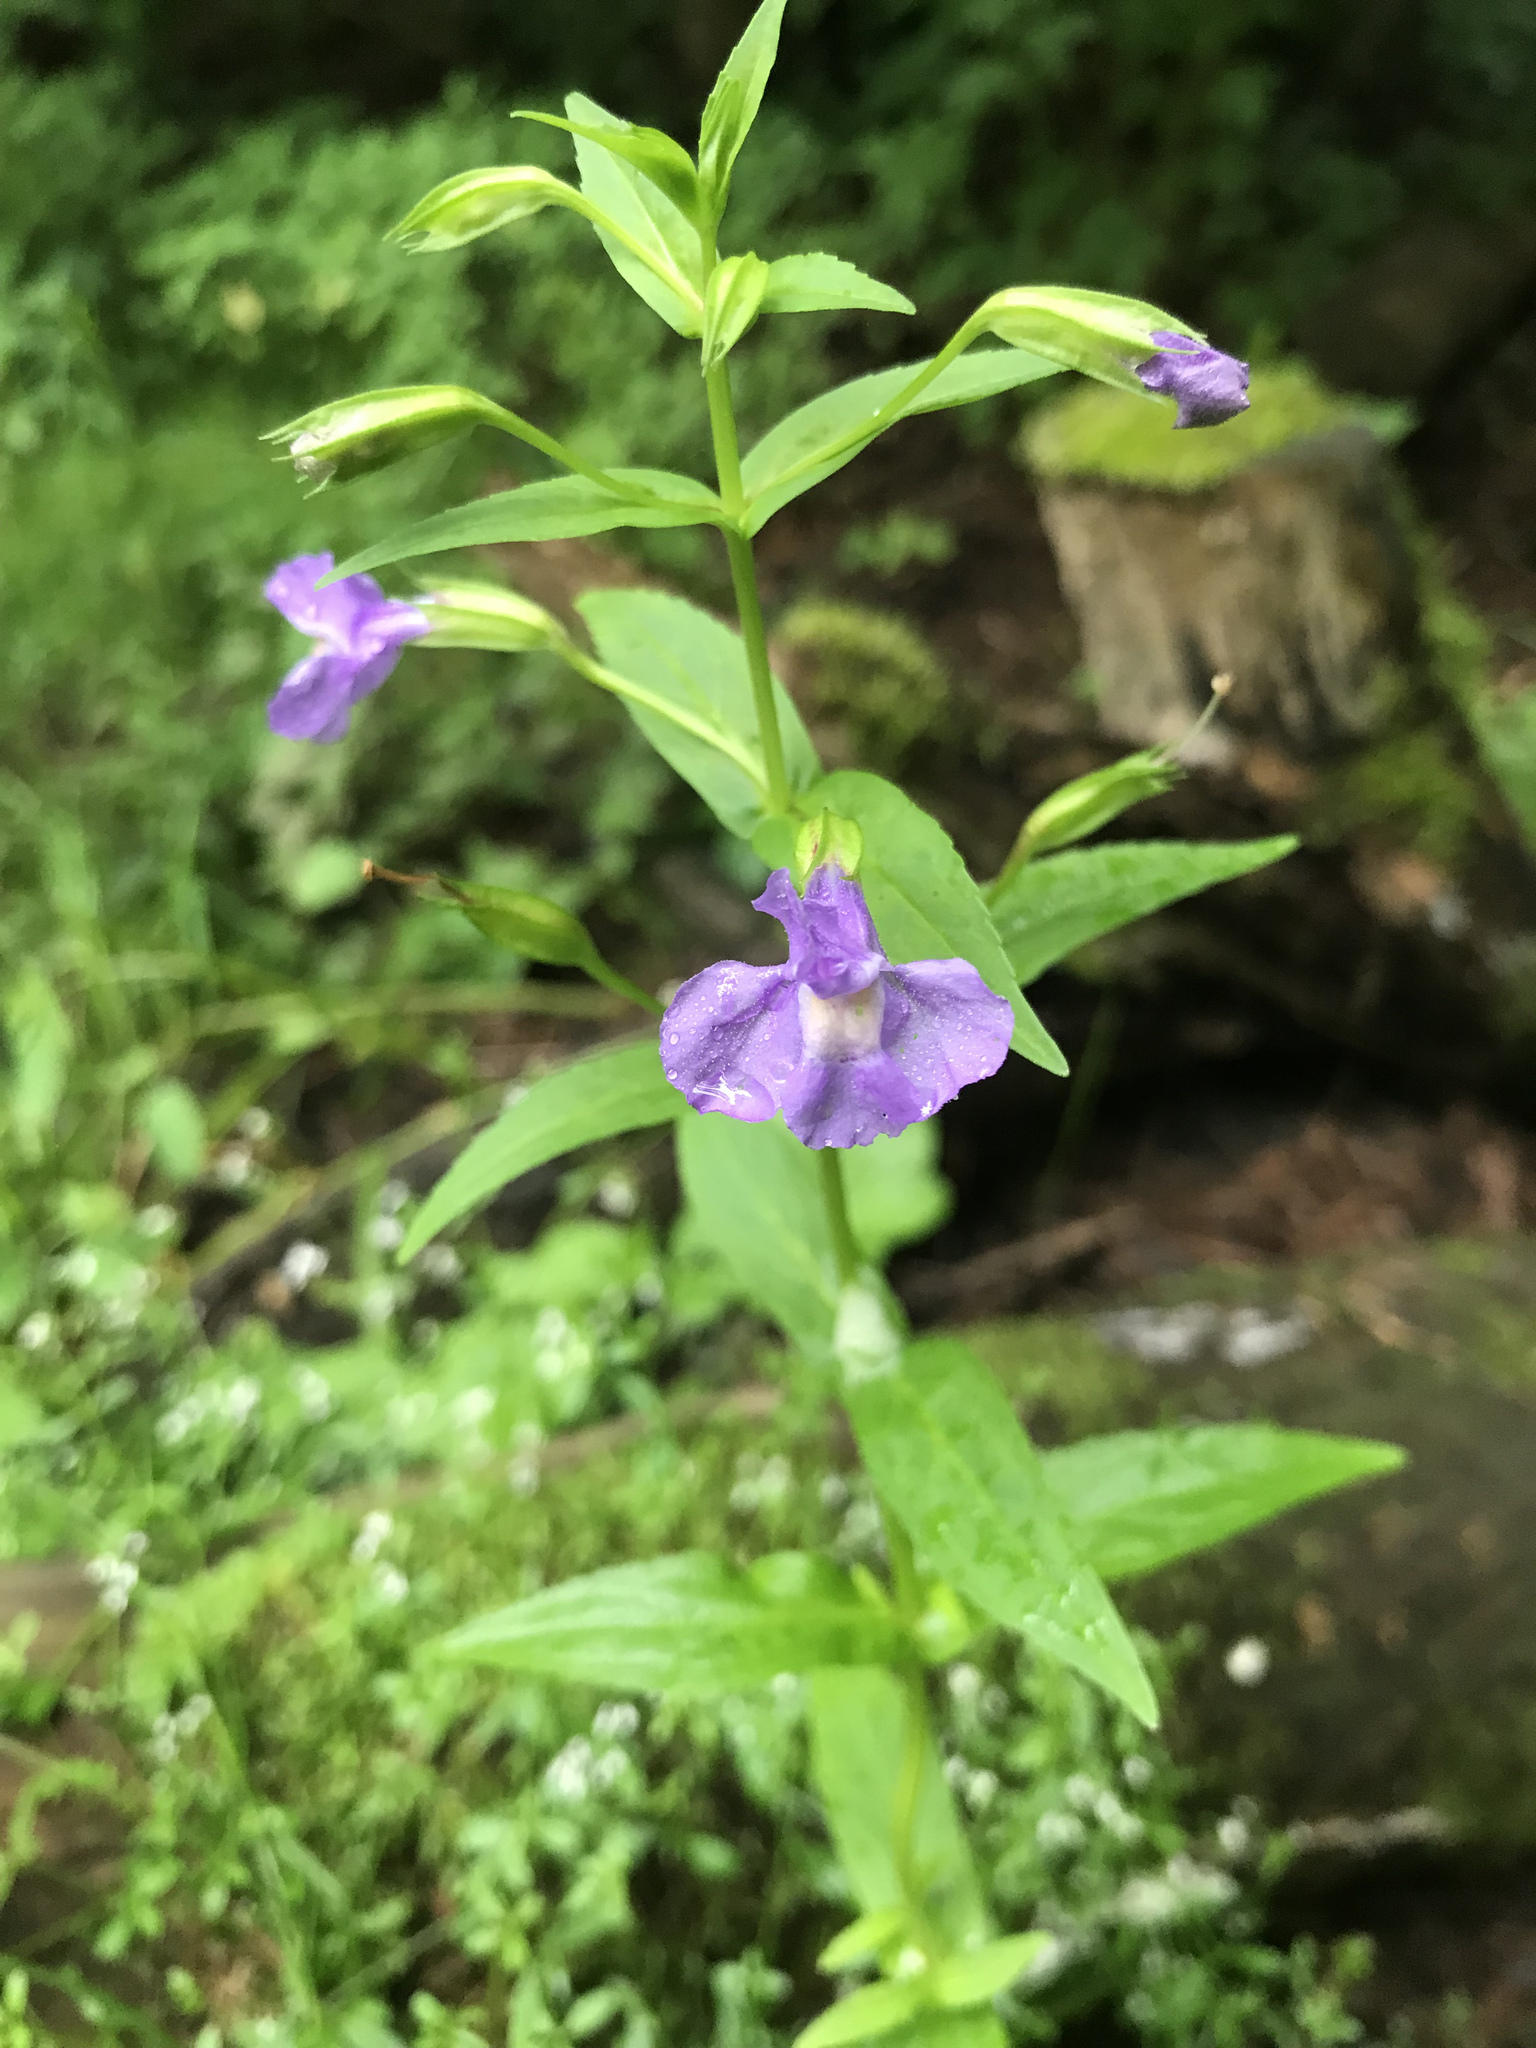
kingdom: Plantae
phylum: Tracheophyta
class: Magnoliopsida
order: Lamiales
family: Phrymaceae
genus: Mimulus
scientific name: Mimulus ringens
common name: Allegheny monkeyflower
